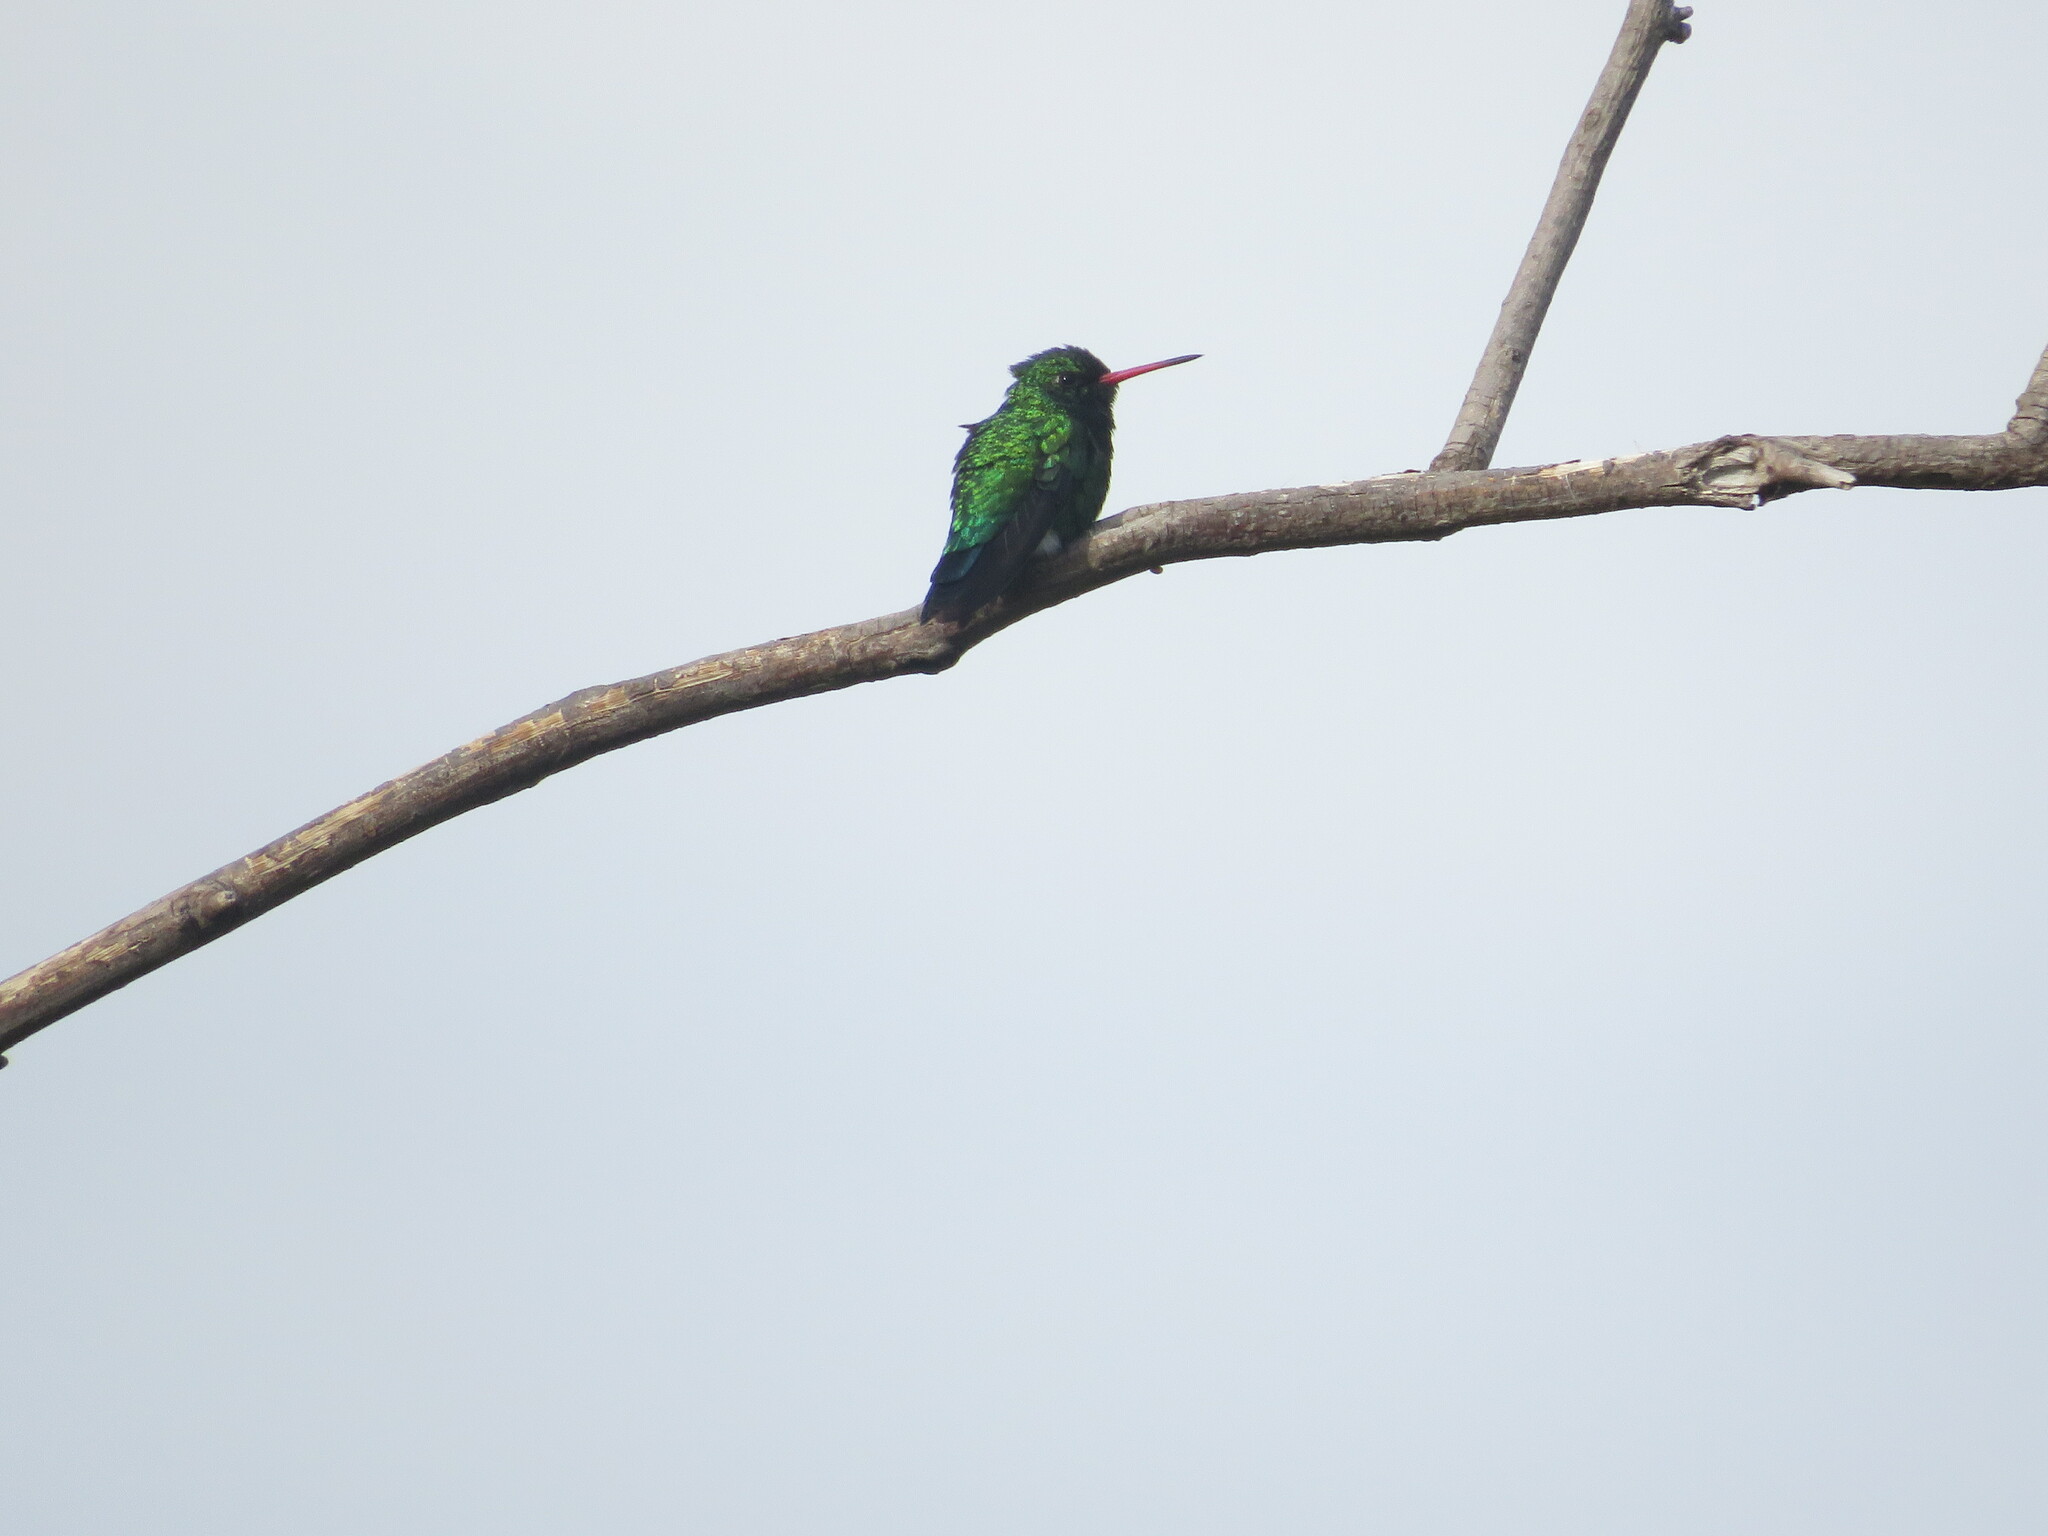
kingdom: Animalia
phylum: Chordata
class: Aves
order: Apodiformes
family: Trochilidae
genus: Chlorostilbon
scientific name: Chlorostilbon lucidus
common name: Glittering-bellied emerald
